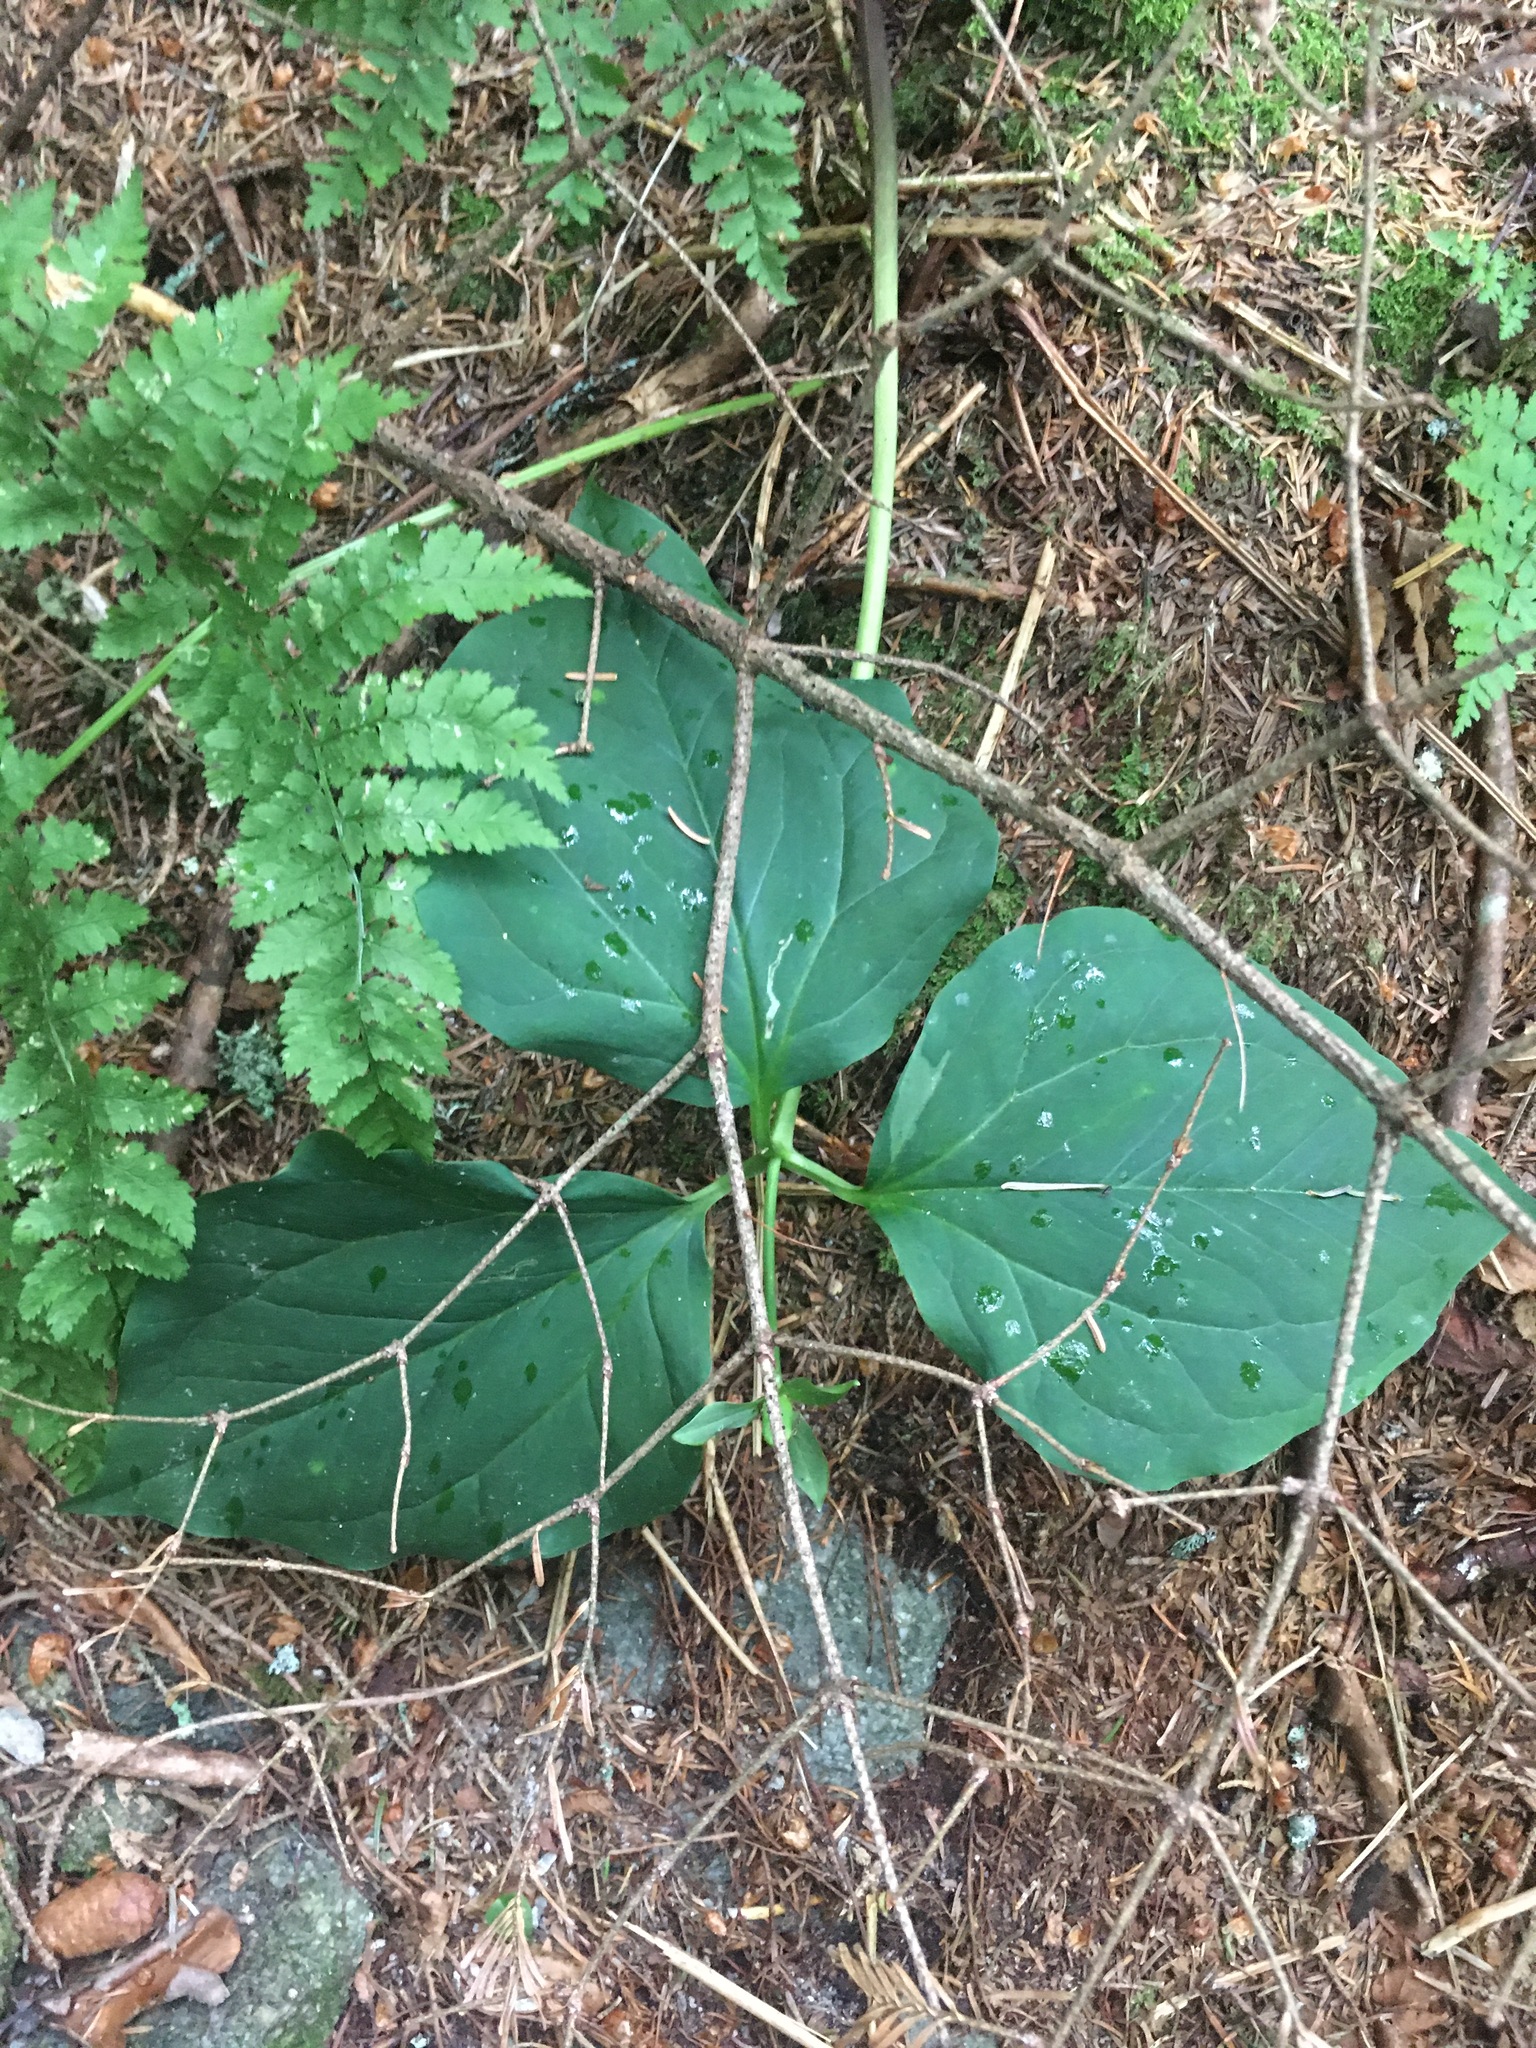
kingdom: Plantae
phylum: Tracheophyta
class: Liliopsida
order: Liliales
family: Melanthiaceae
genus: Trillium
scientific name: Trillium undulatum
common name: Paint trillium
